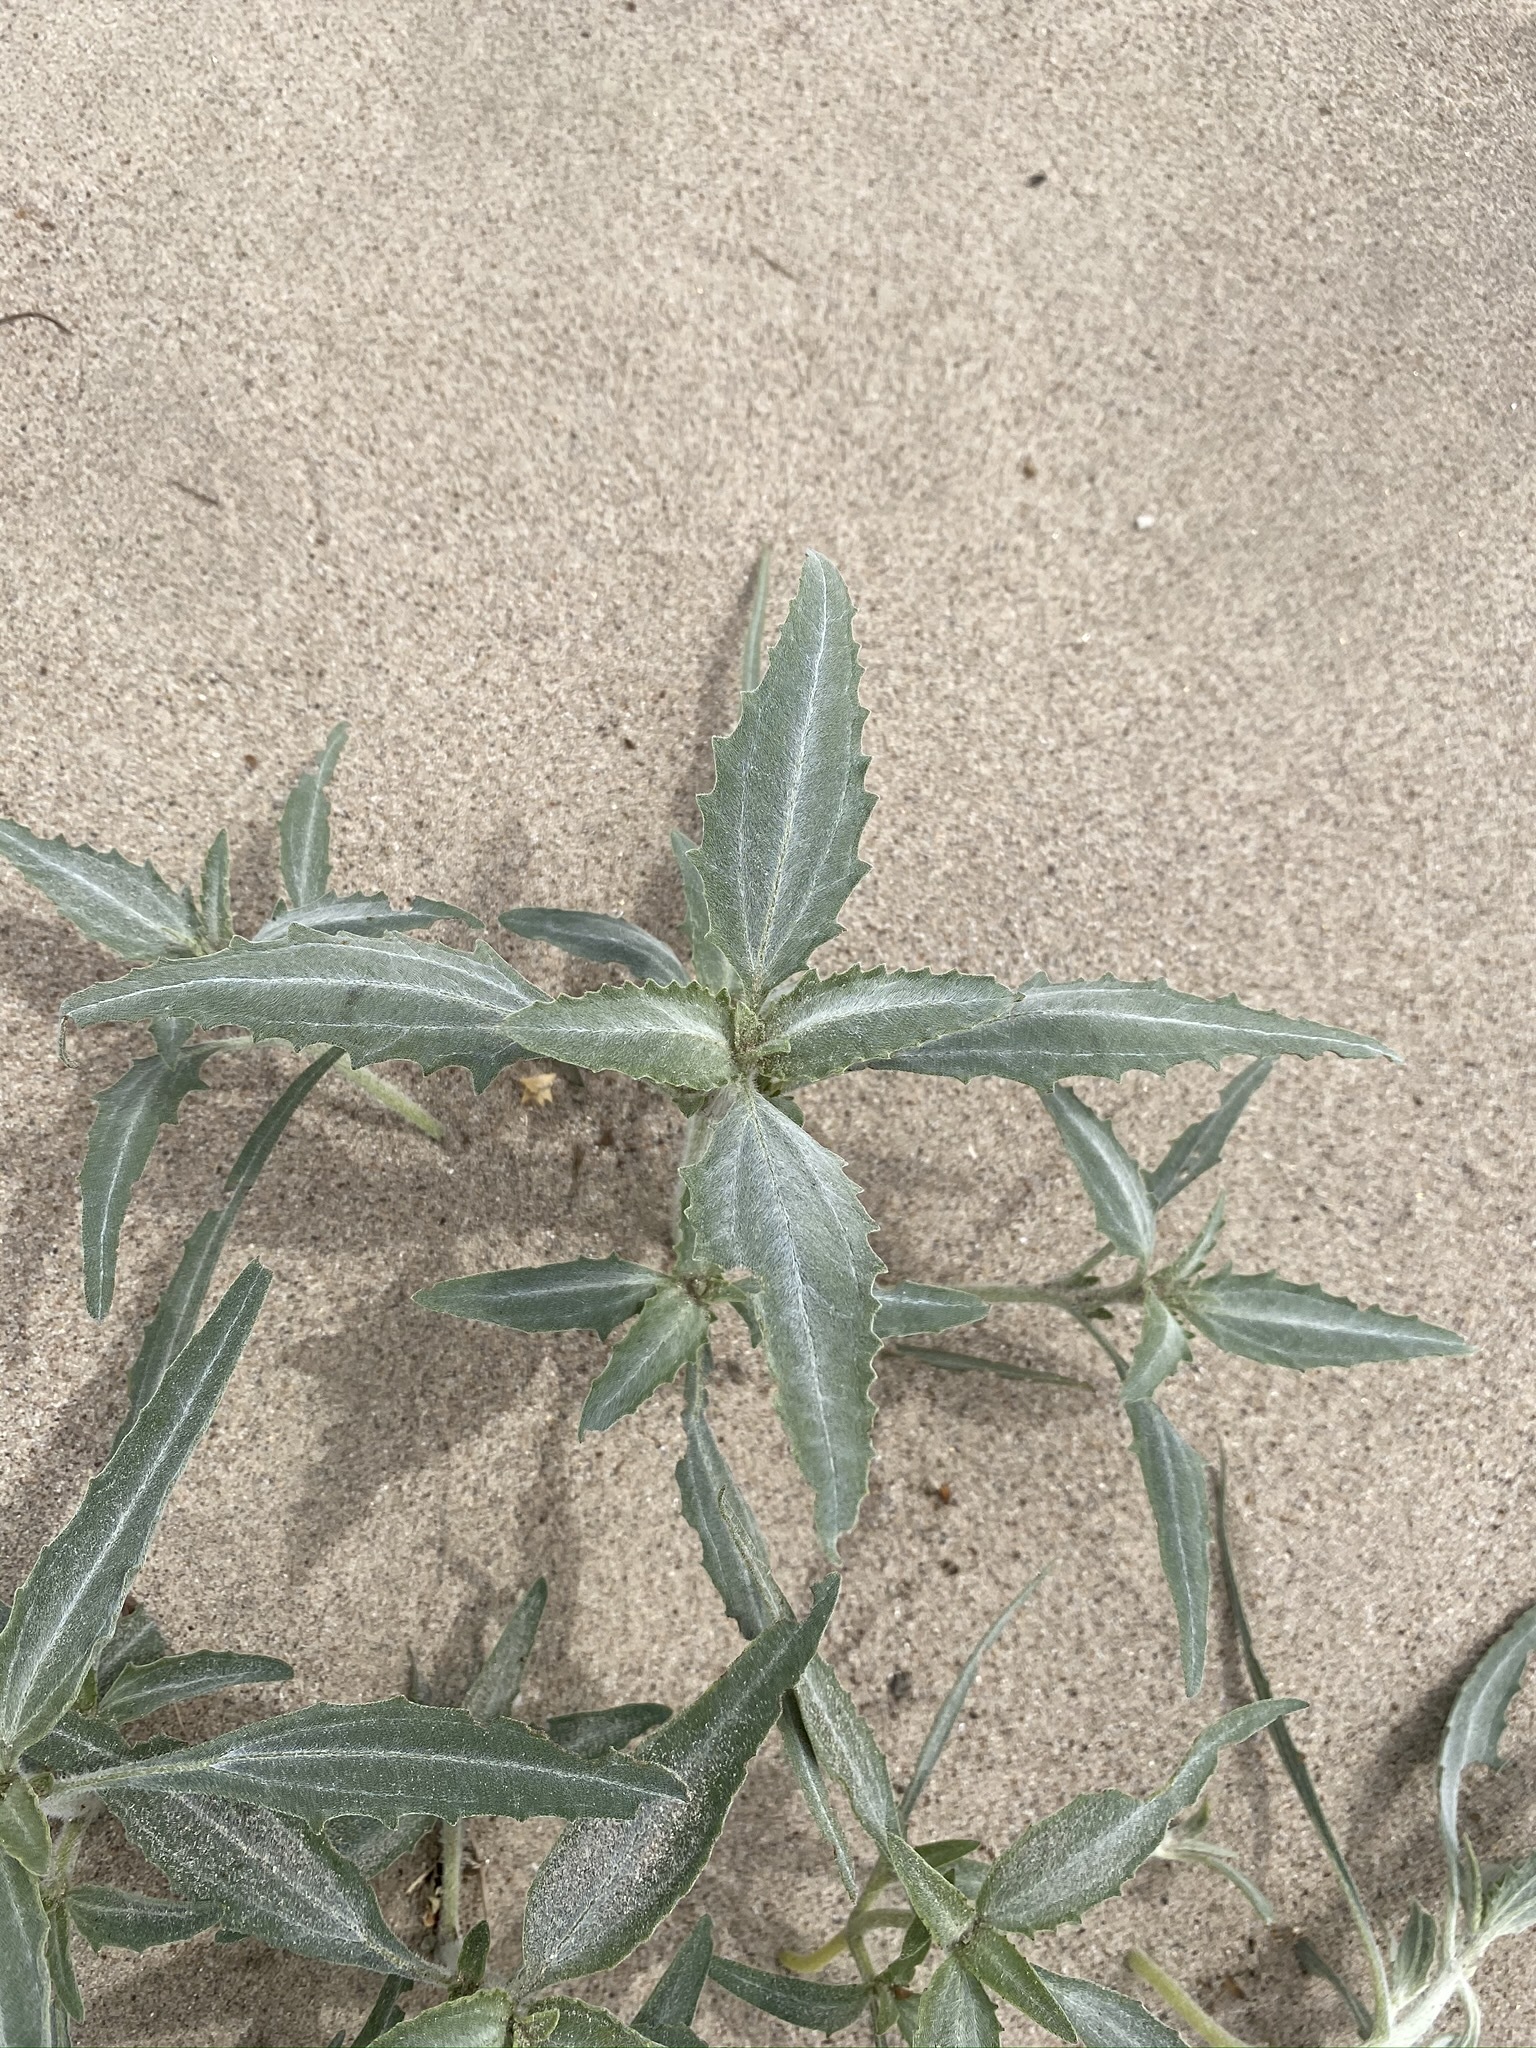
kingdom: Plantae
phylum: Tracheophyta
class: Magnoliopsida
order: Asterales
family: Asteraceae
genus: Dicoria
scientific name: Dicoria canescens
